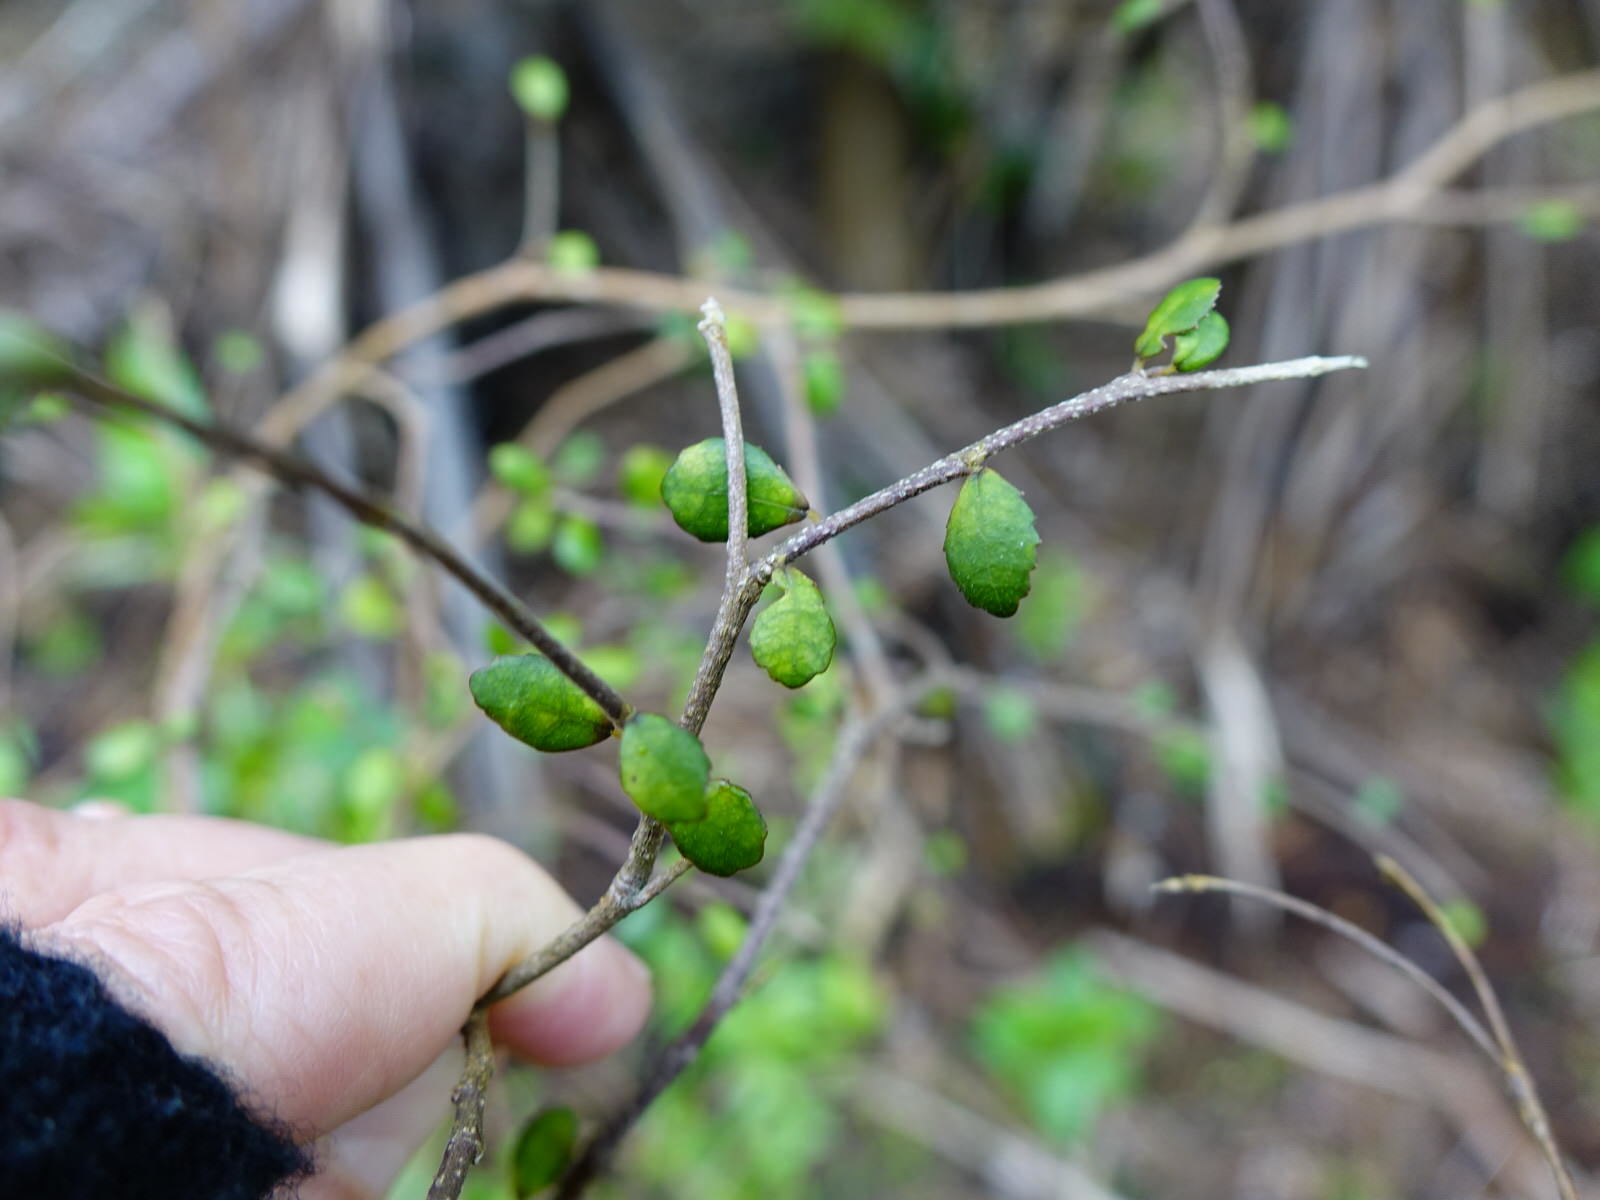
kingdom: Plantae
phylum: Tracheophyta
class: Magnoliopsida
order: Rosales
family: Moraceae
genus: Paratrophis
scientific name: Paratrophis microphylla
